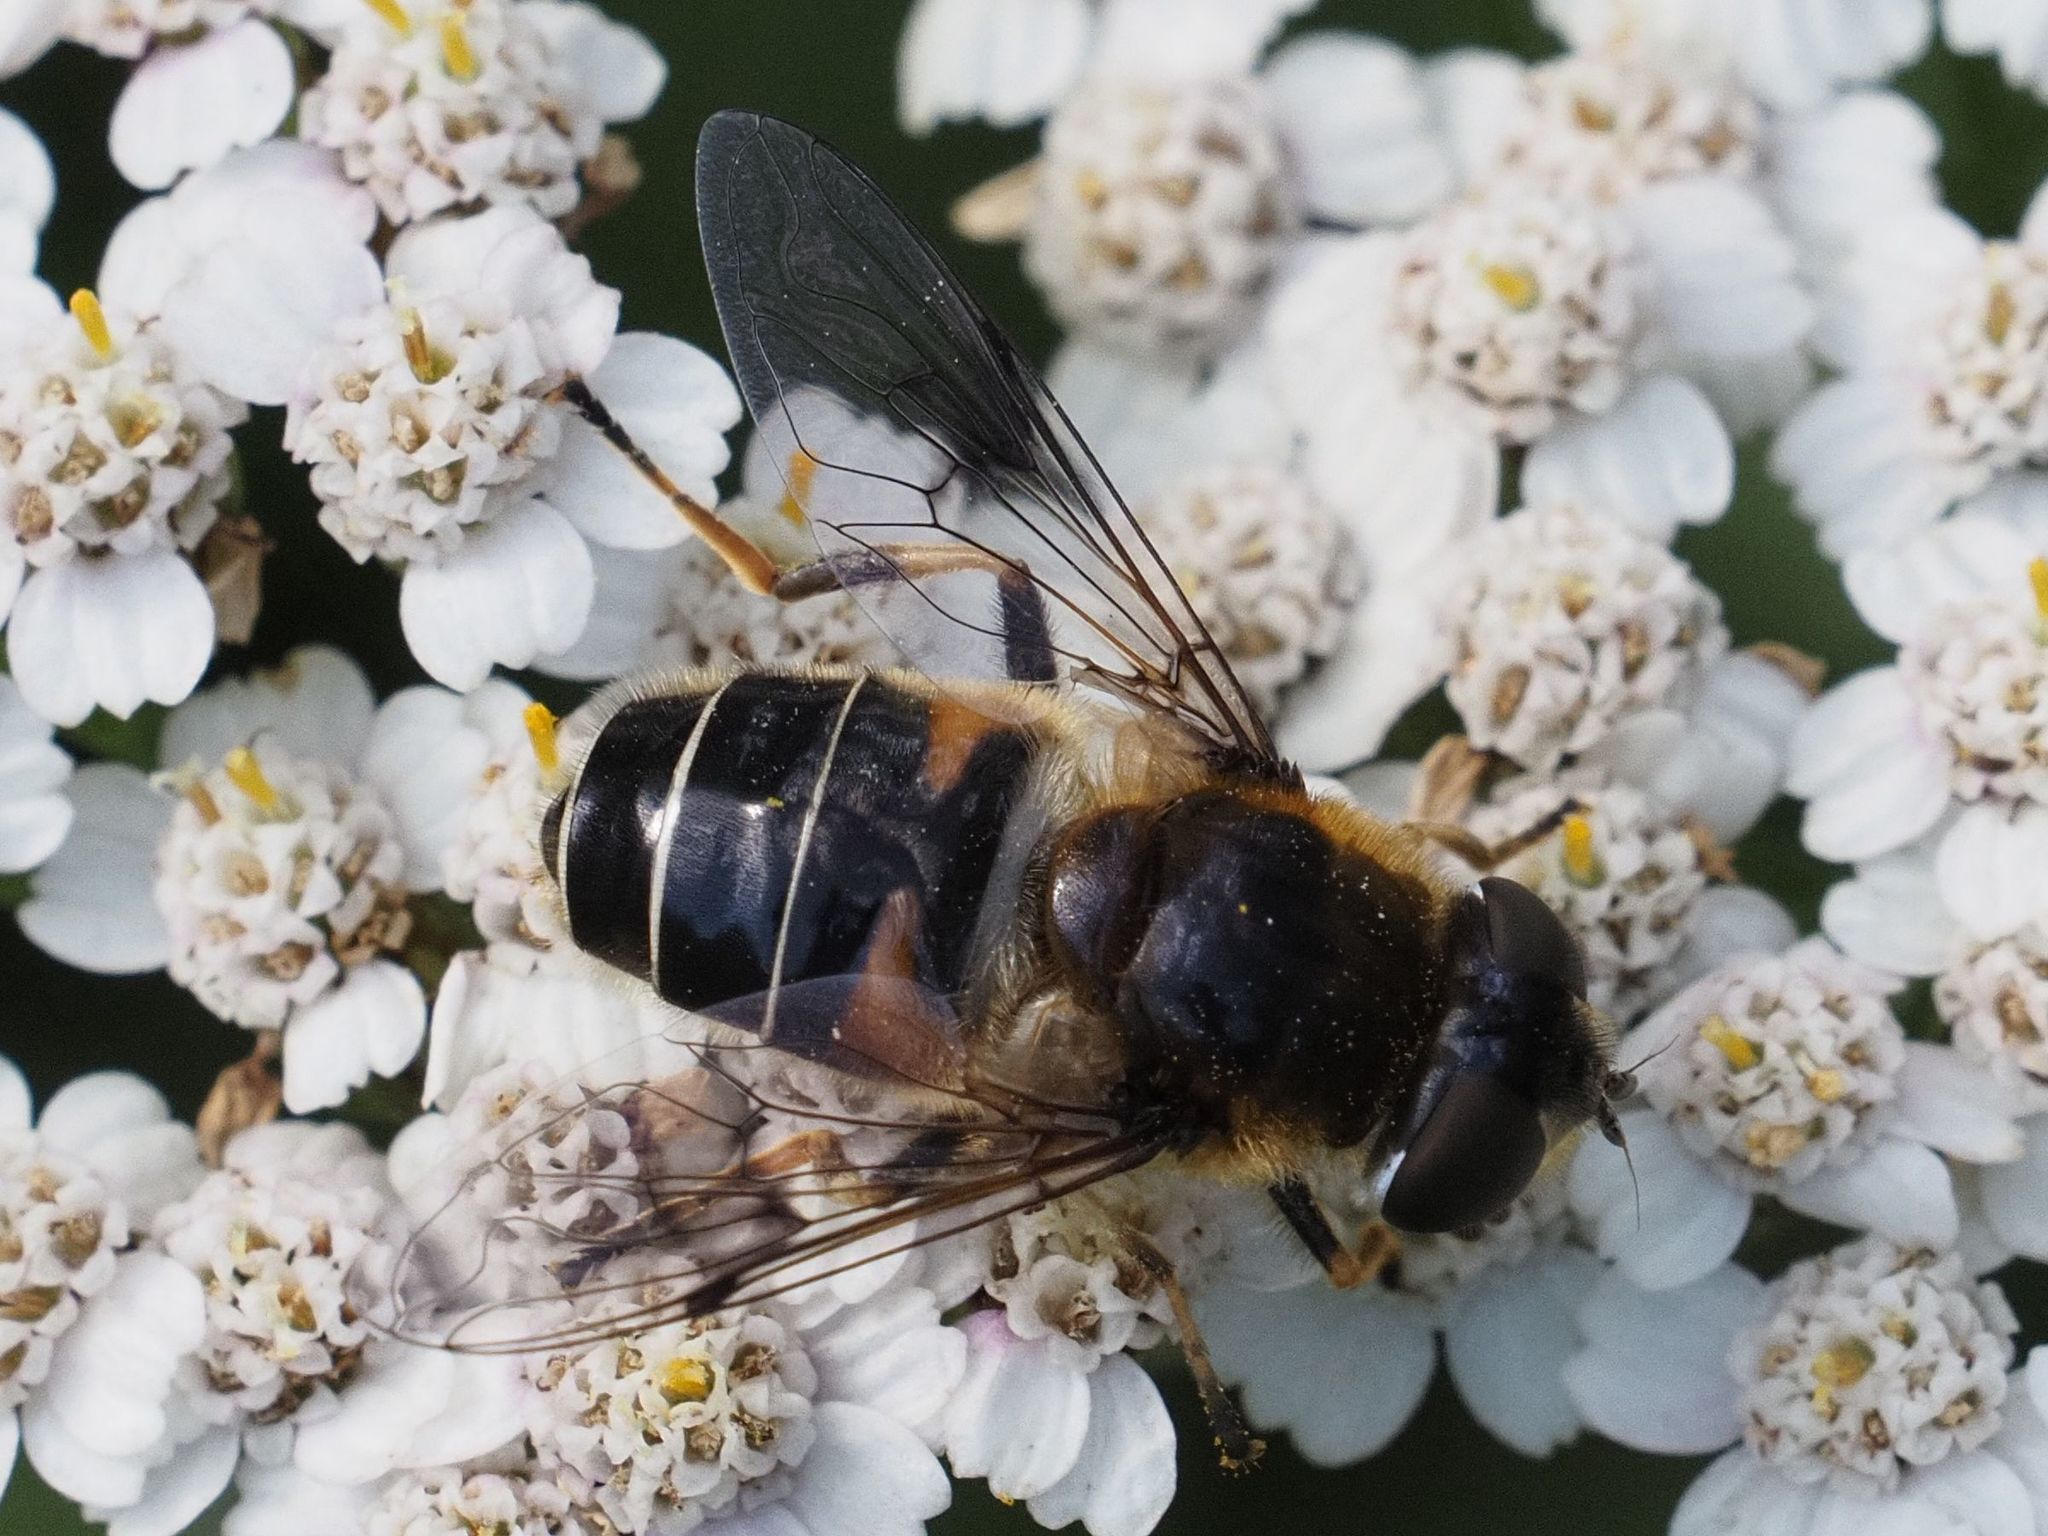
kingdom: Animalia
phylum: Arthropoda
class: Insecta
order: Diptera
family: Syrphidae
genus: Eristalis
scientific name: Eristalis rupium
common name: Hover fly
